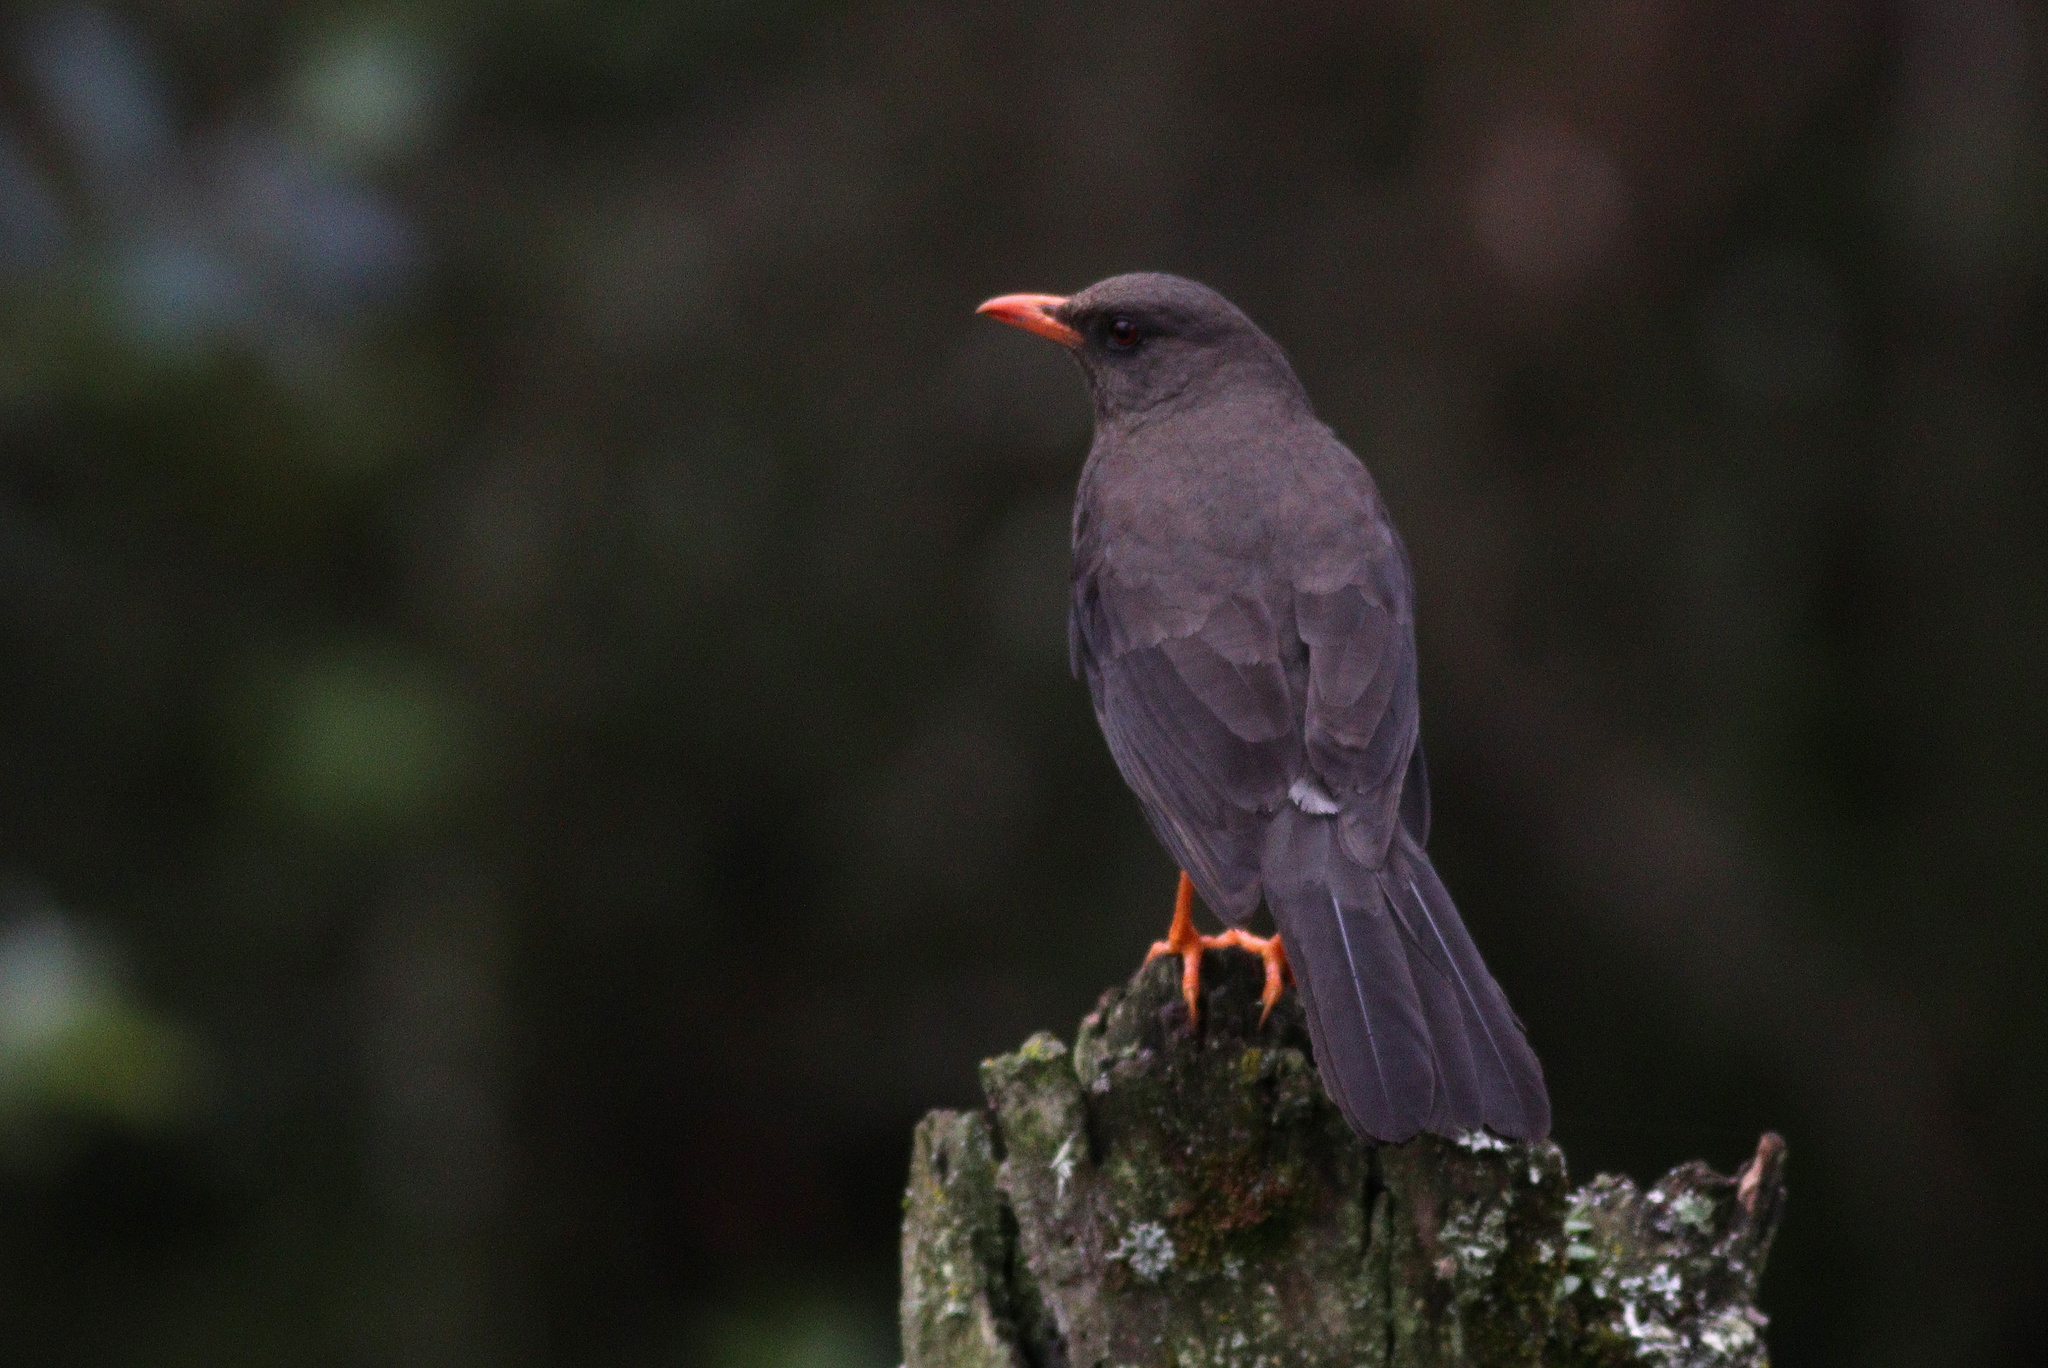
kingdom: Animalia
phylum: Chordata
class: Aves
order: Passeriformes
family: Turdidae
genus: Turdus
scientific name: Turdus fuscater
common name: Great thrush
